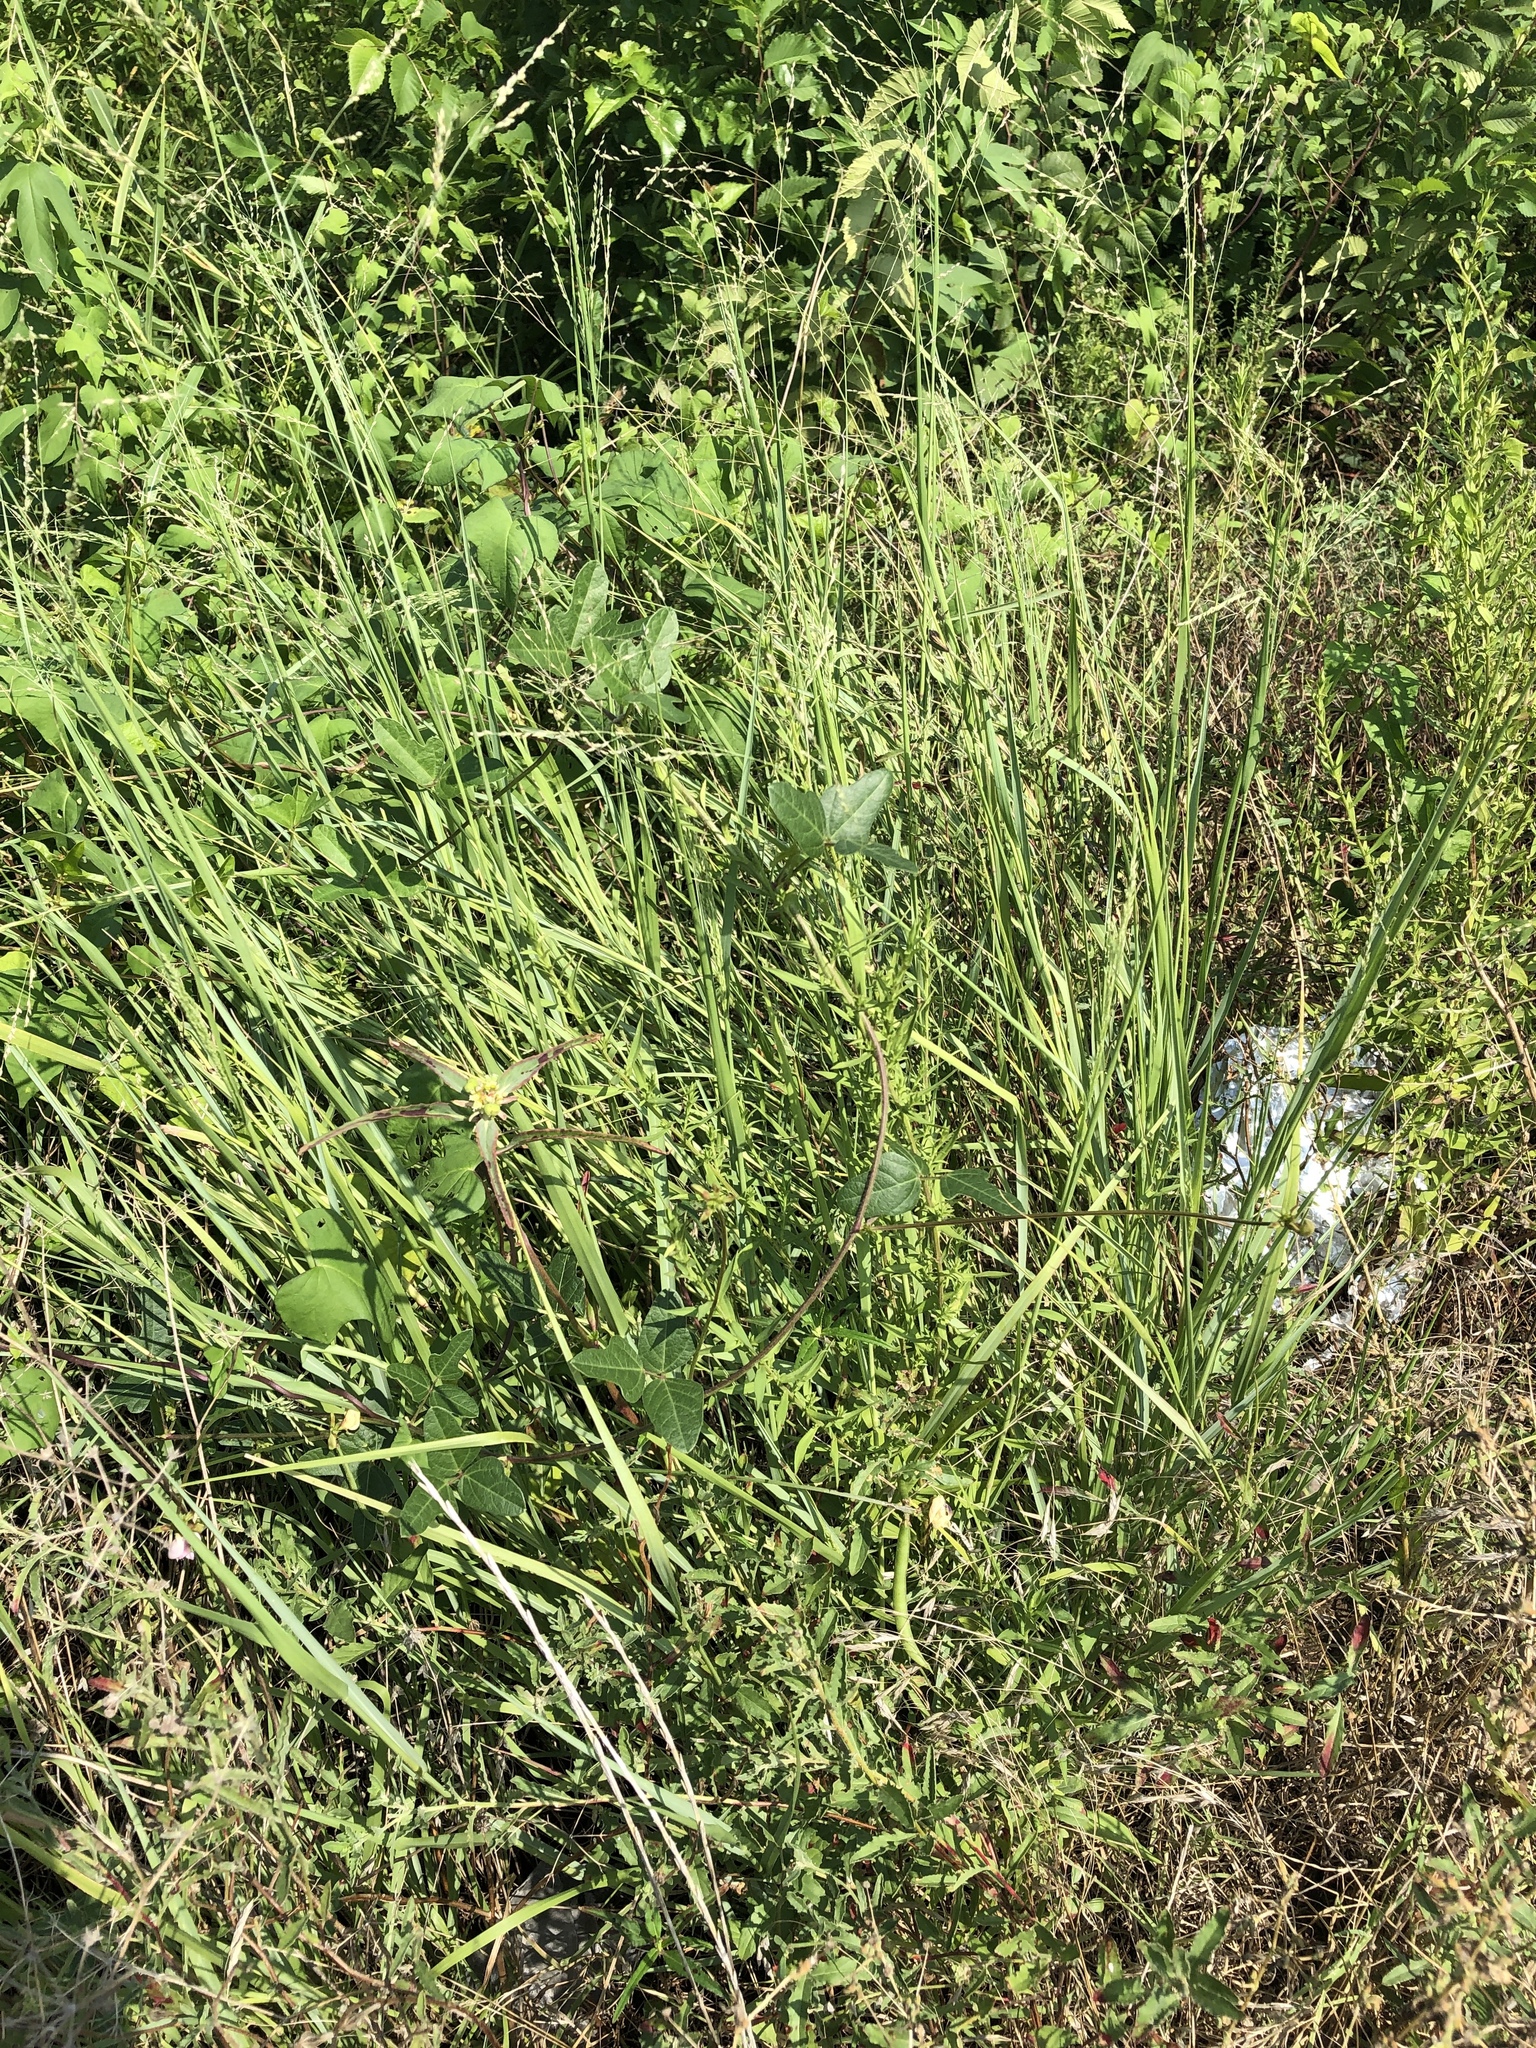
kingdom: Plantae
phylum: Tracheophyta
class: Magnoliopsida
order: Fabales
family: Fabaceae
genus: Strophostyles
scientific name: Strophostyles helvola
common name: Trailing wild bean
